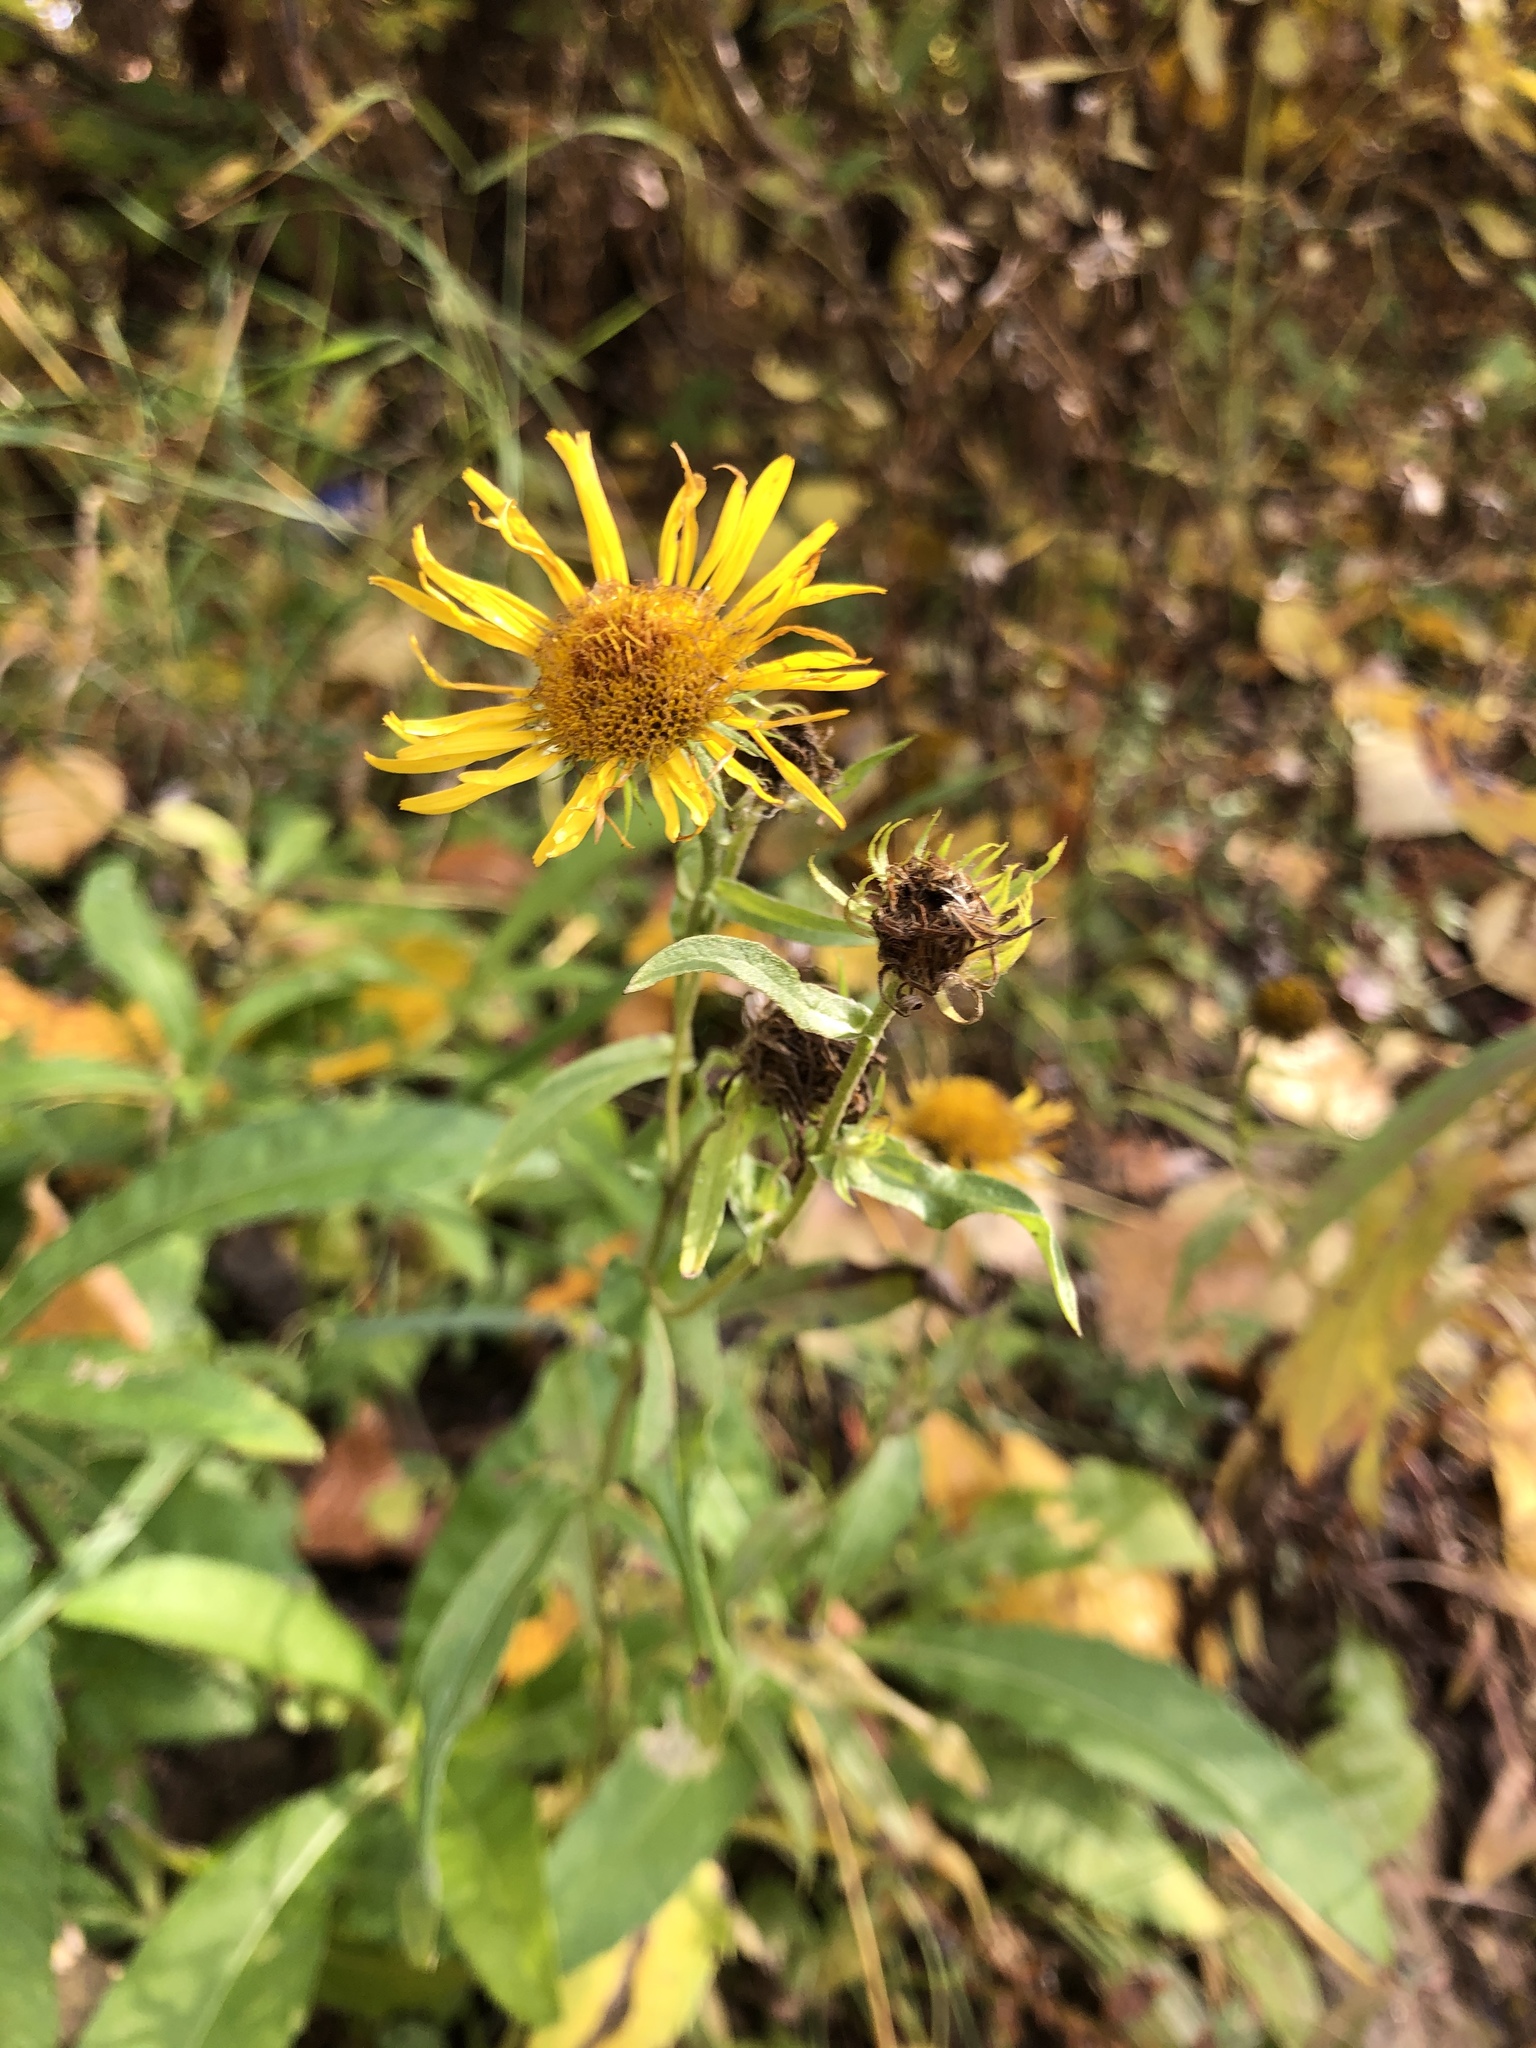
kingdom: Plantae
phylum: Tracheophyta
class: Magnoliopsida
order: Asterales
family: Asteraceae
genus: Pentanema
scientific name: Pentanema britannicum
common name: British elecampane
